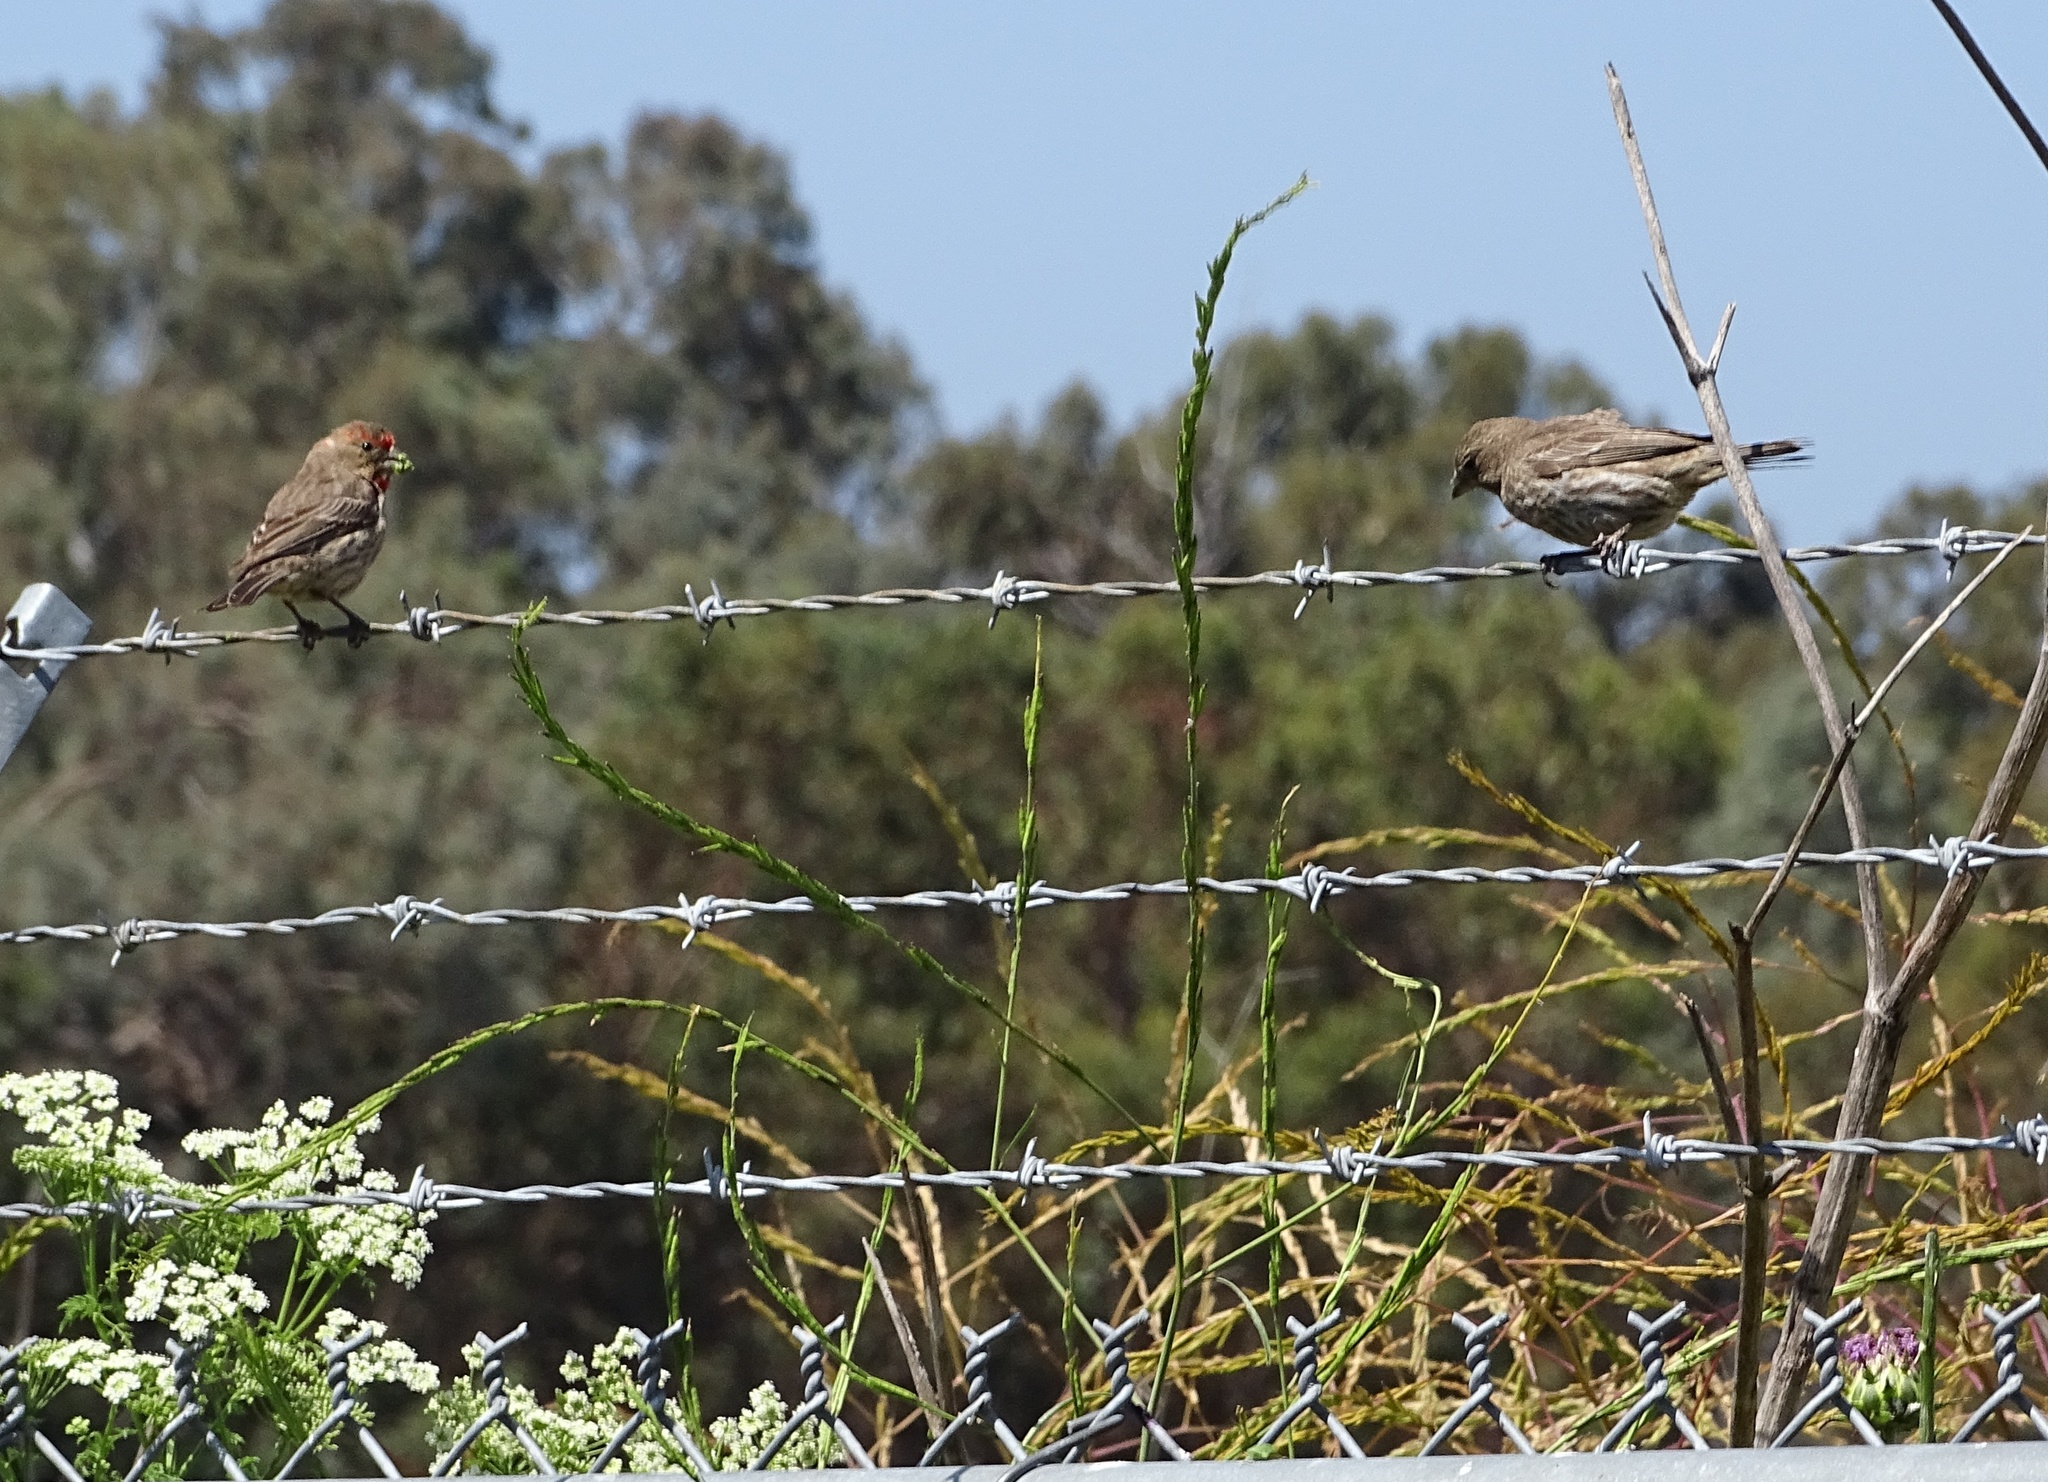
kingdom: Animalia
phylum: Chordata
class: Aves
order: Passeriformes
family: Fringillidae
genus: Haemorhous
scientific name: Haemorhous mexicanus
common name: House finch
